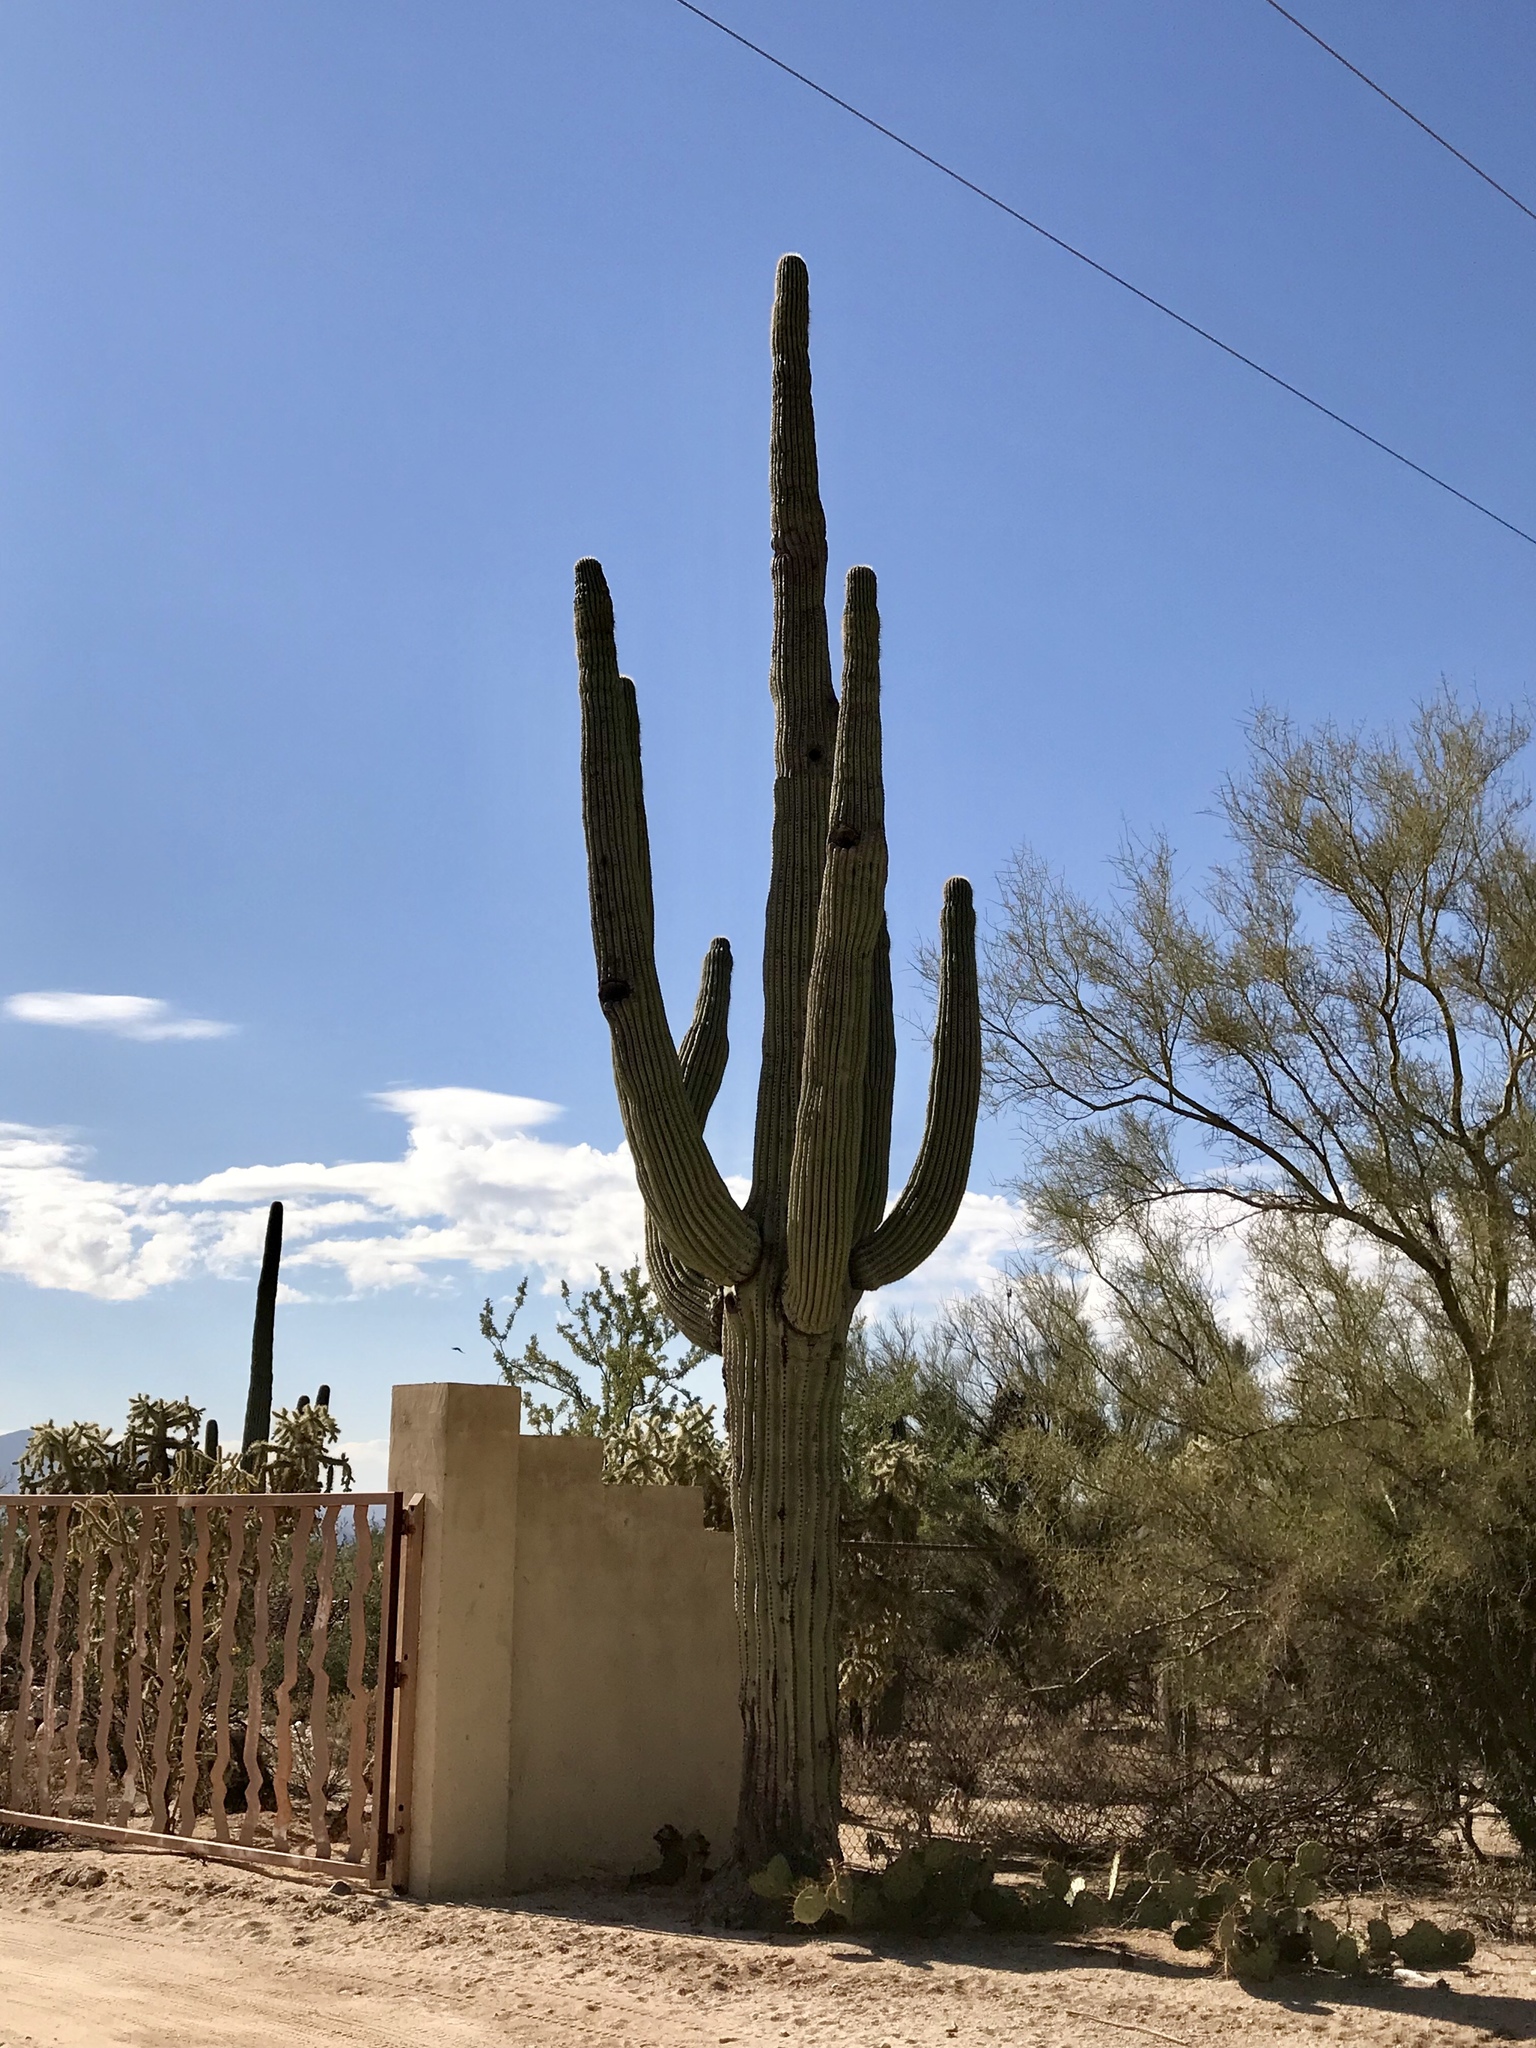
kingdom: Plantae
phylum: Tracheophyta
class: Magnoliopsida
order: Caryophyllales
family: Cactaceae
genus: Carnegiea
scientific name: Carnegiea gigantea
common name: Saguaro
